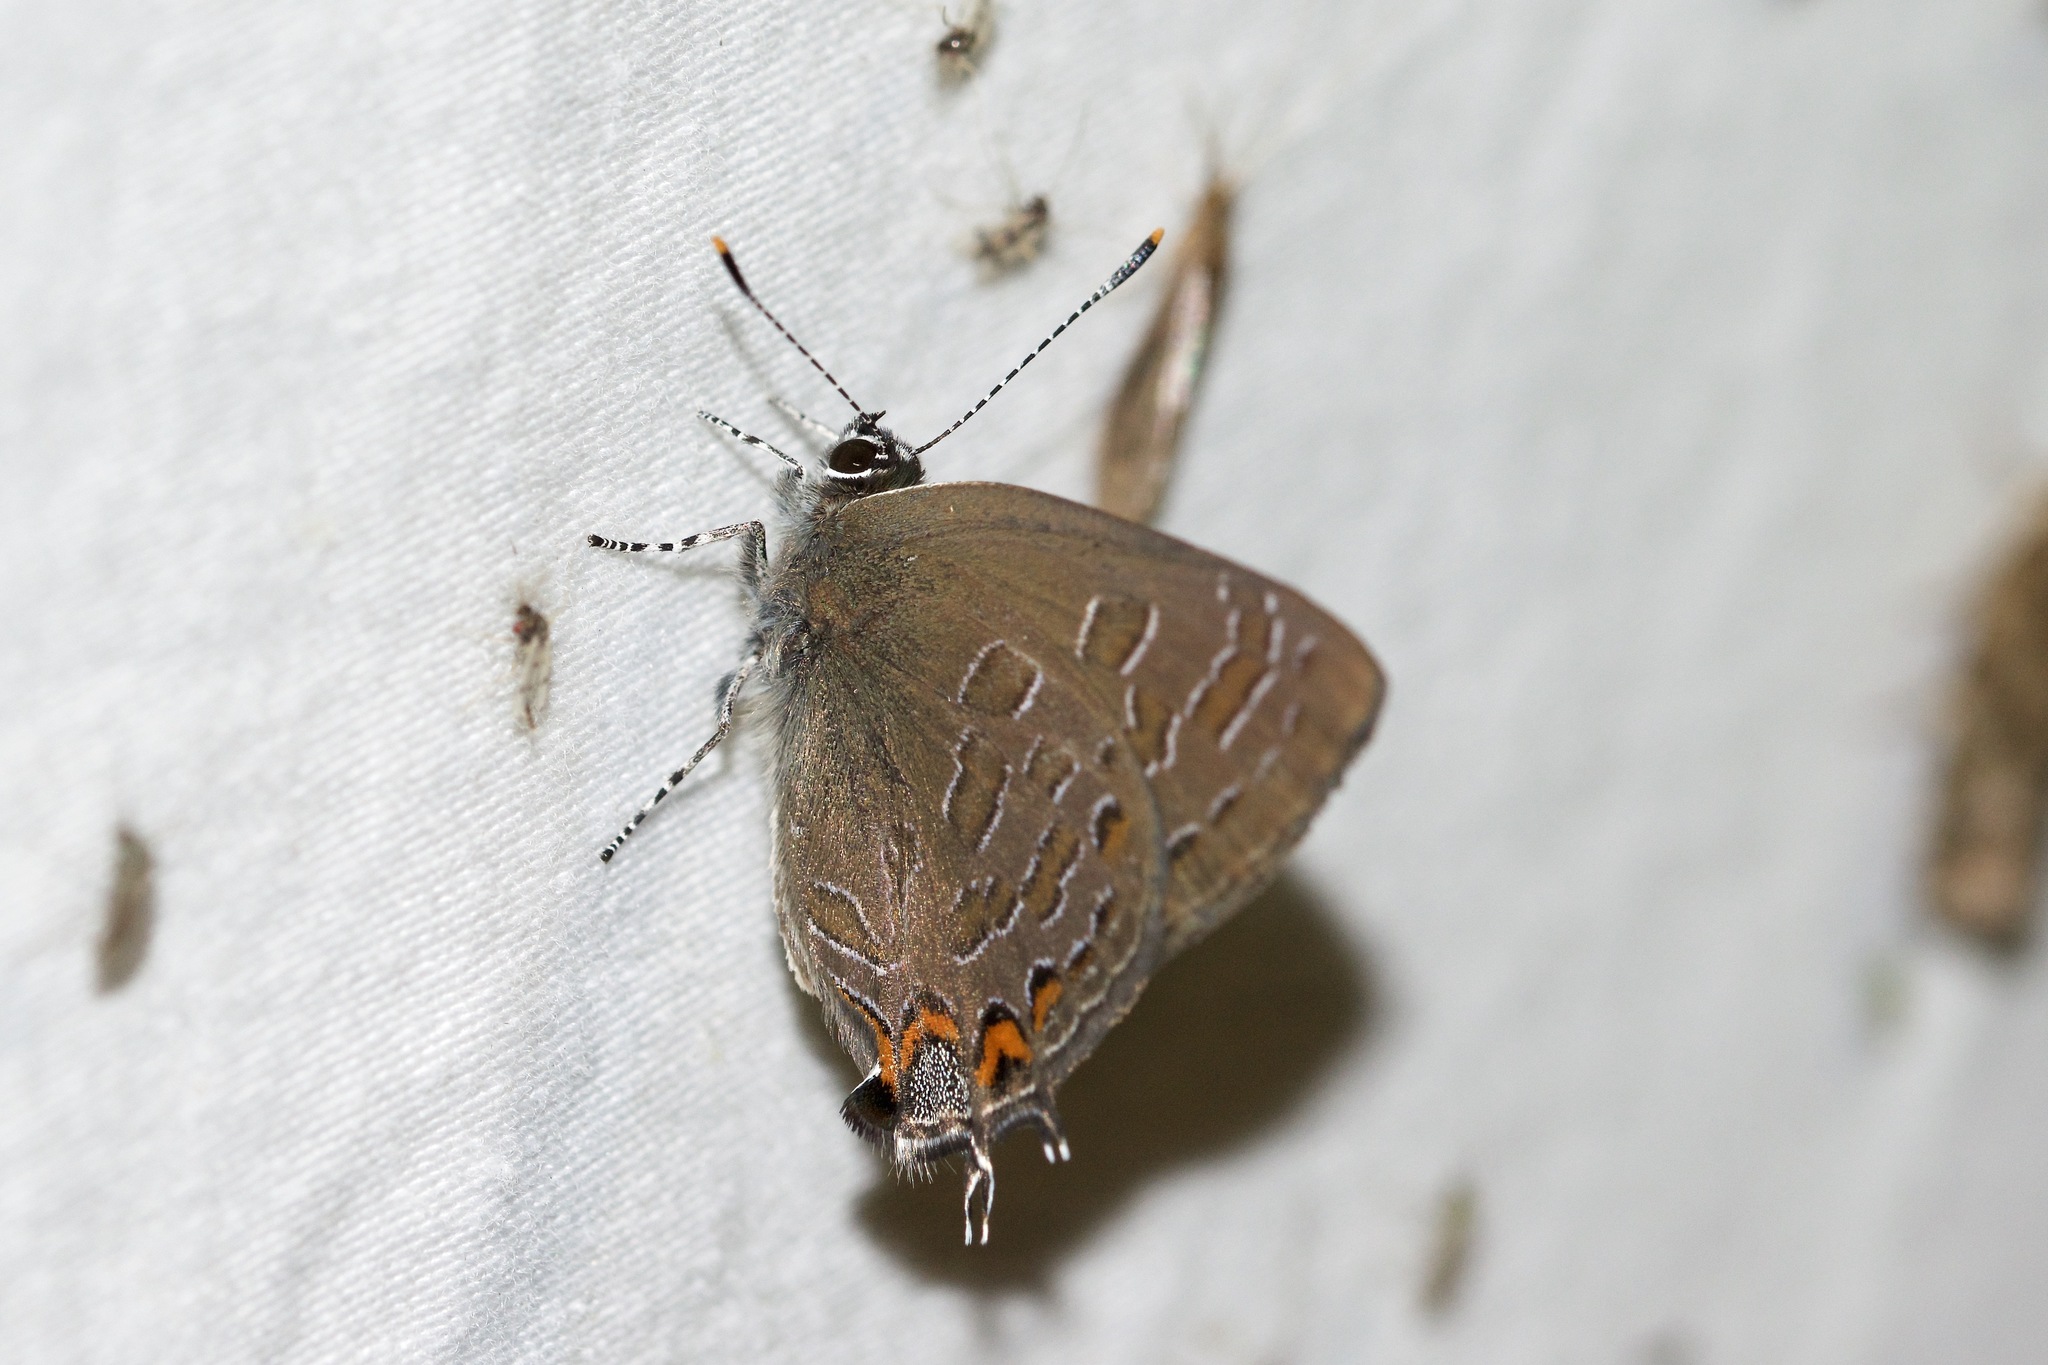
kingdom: Animalia
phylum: Arthropoda
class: Insecta
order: Lepidoptera
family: Lycaenidae
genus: Satyrium
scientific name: Satyrium liparops
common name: Striped hairstreak
